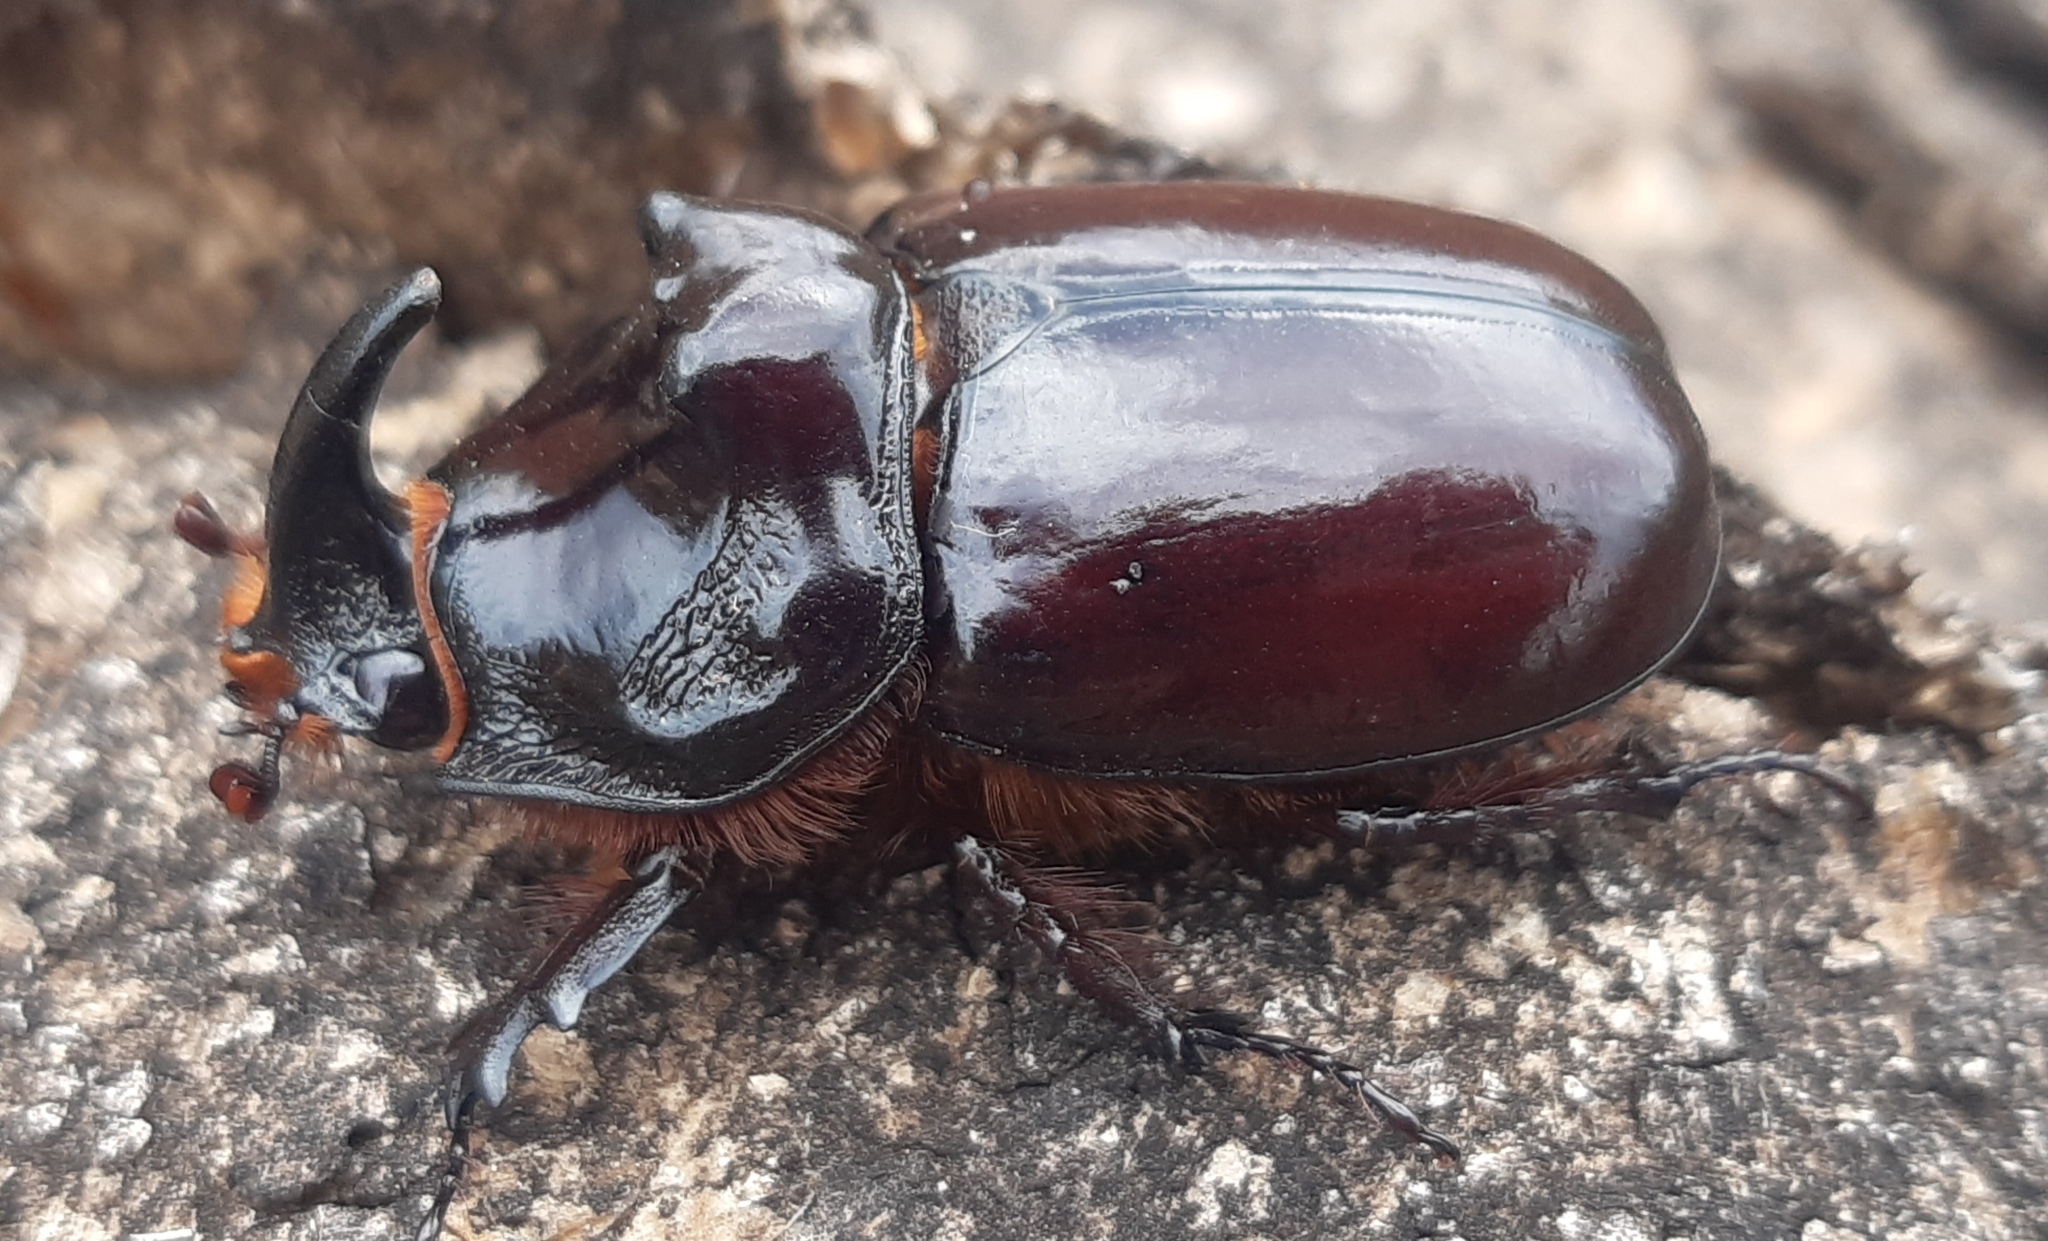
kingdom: Animalia
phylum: Arthropoda
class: Insecta
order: Coleoptera
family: Scarabaeidae
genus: Oryctes
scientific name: Oryctes nasicornis
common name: European rhinoceros beetle
